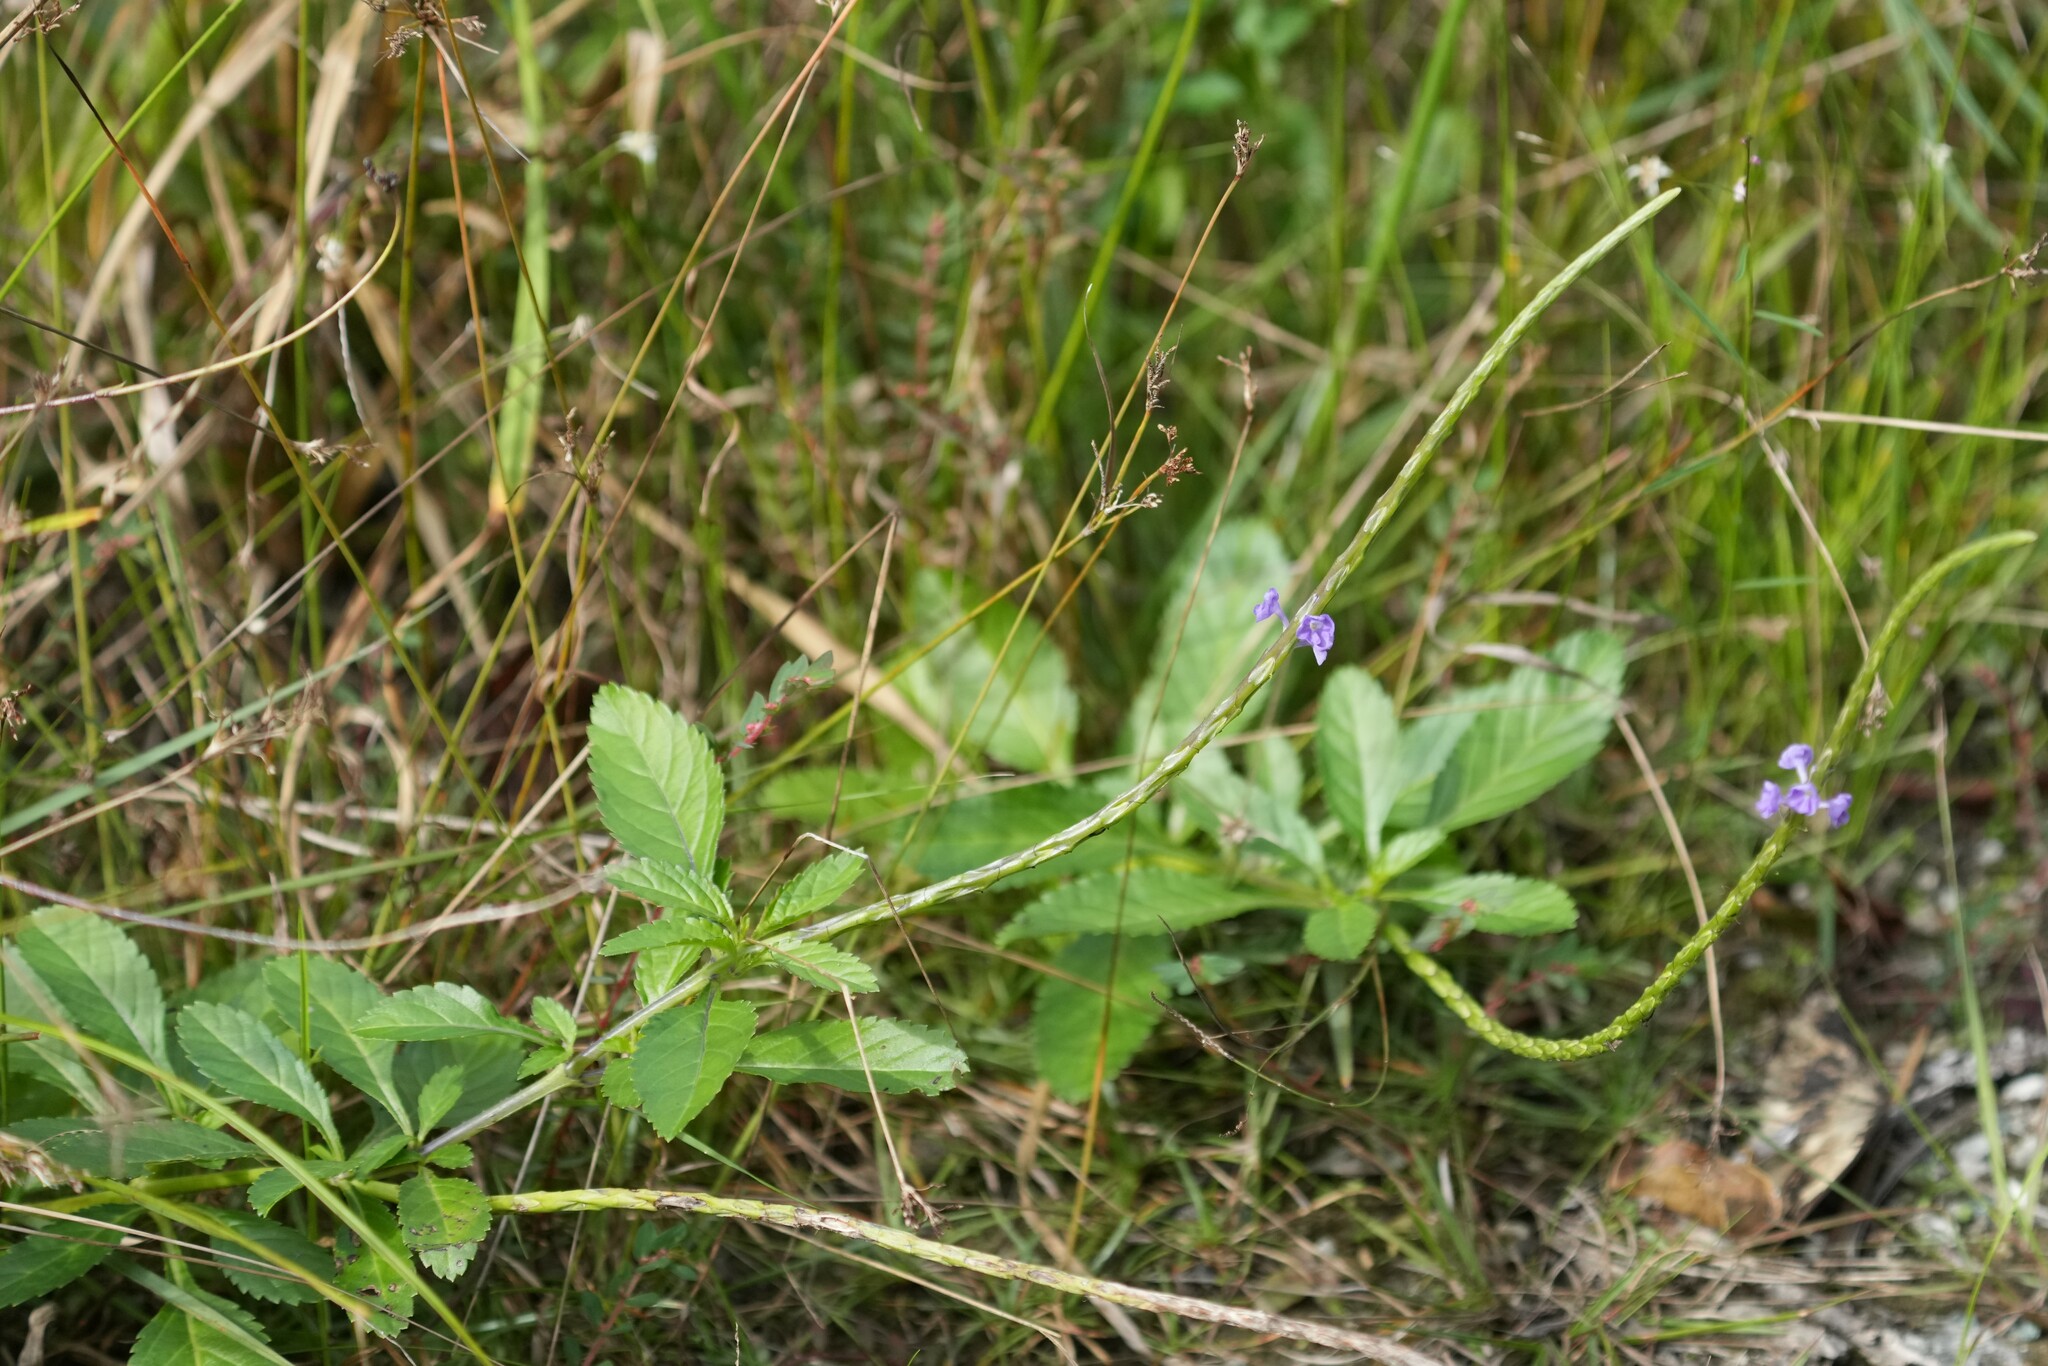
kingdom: Plantae
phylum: Tracheophyta
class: Magnoliopsida
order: Lamiales
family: Verbenaceae
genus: Stachytarpheta
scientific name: Stachytarpheta jamaicensis
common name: Light-blue snakeweed
